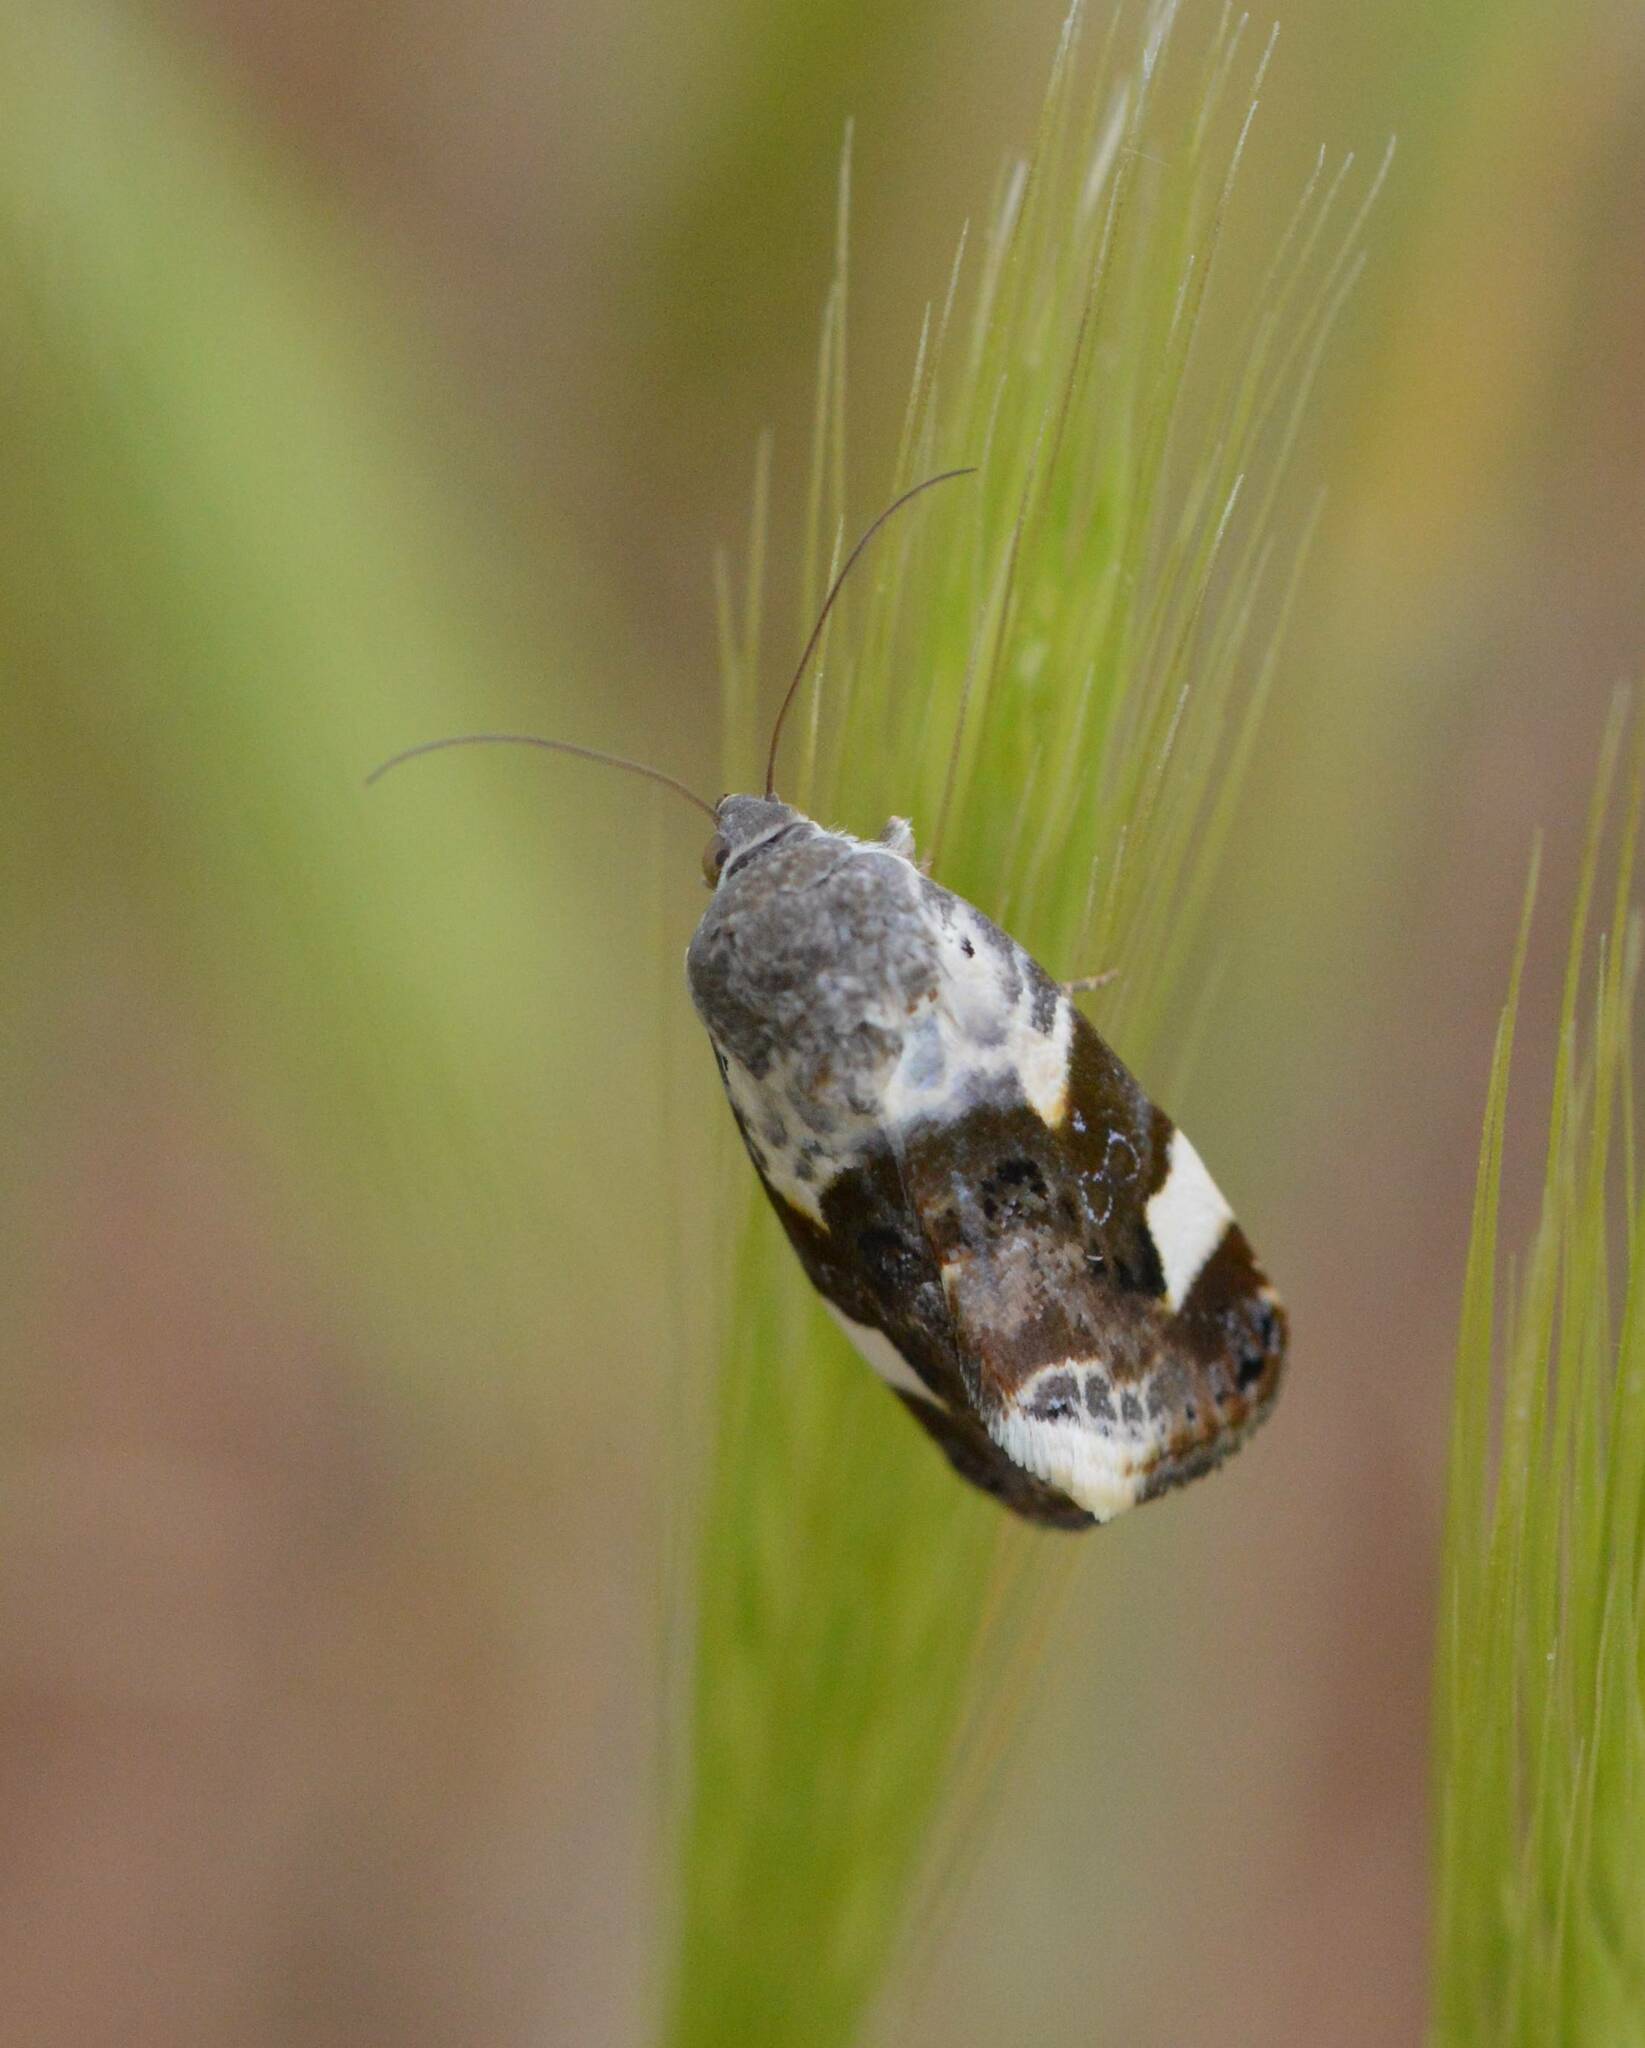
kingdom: Animalia
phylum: Arthropoda
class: Insecta
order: Lepidoptera
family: Noctuidae
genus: Acontia
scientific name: Acontia lucida
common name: Pale shoulder
